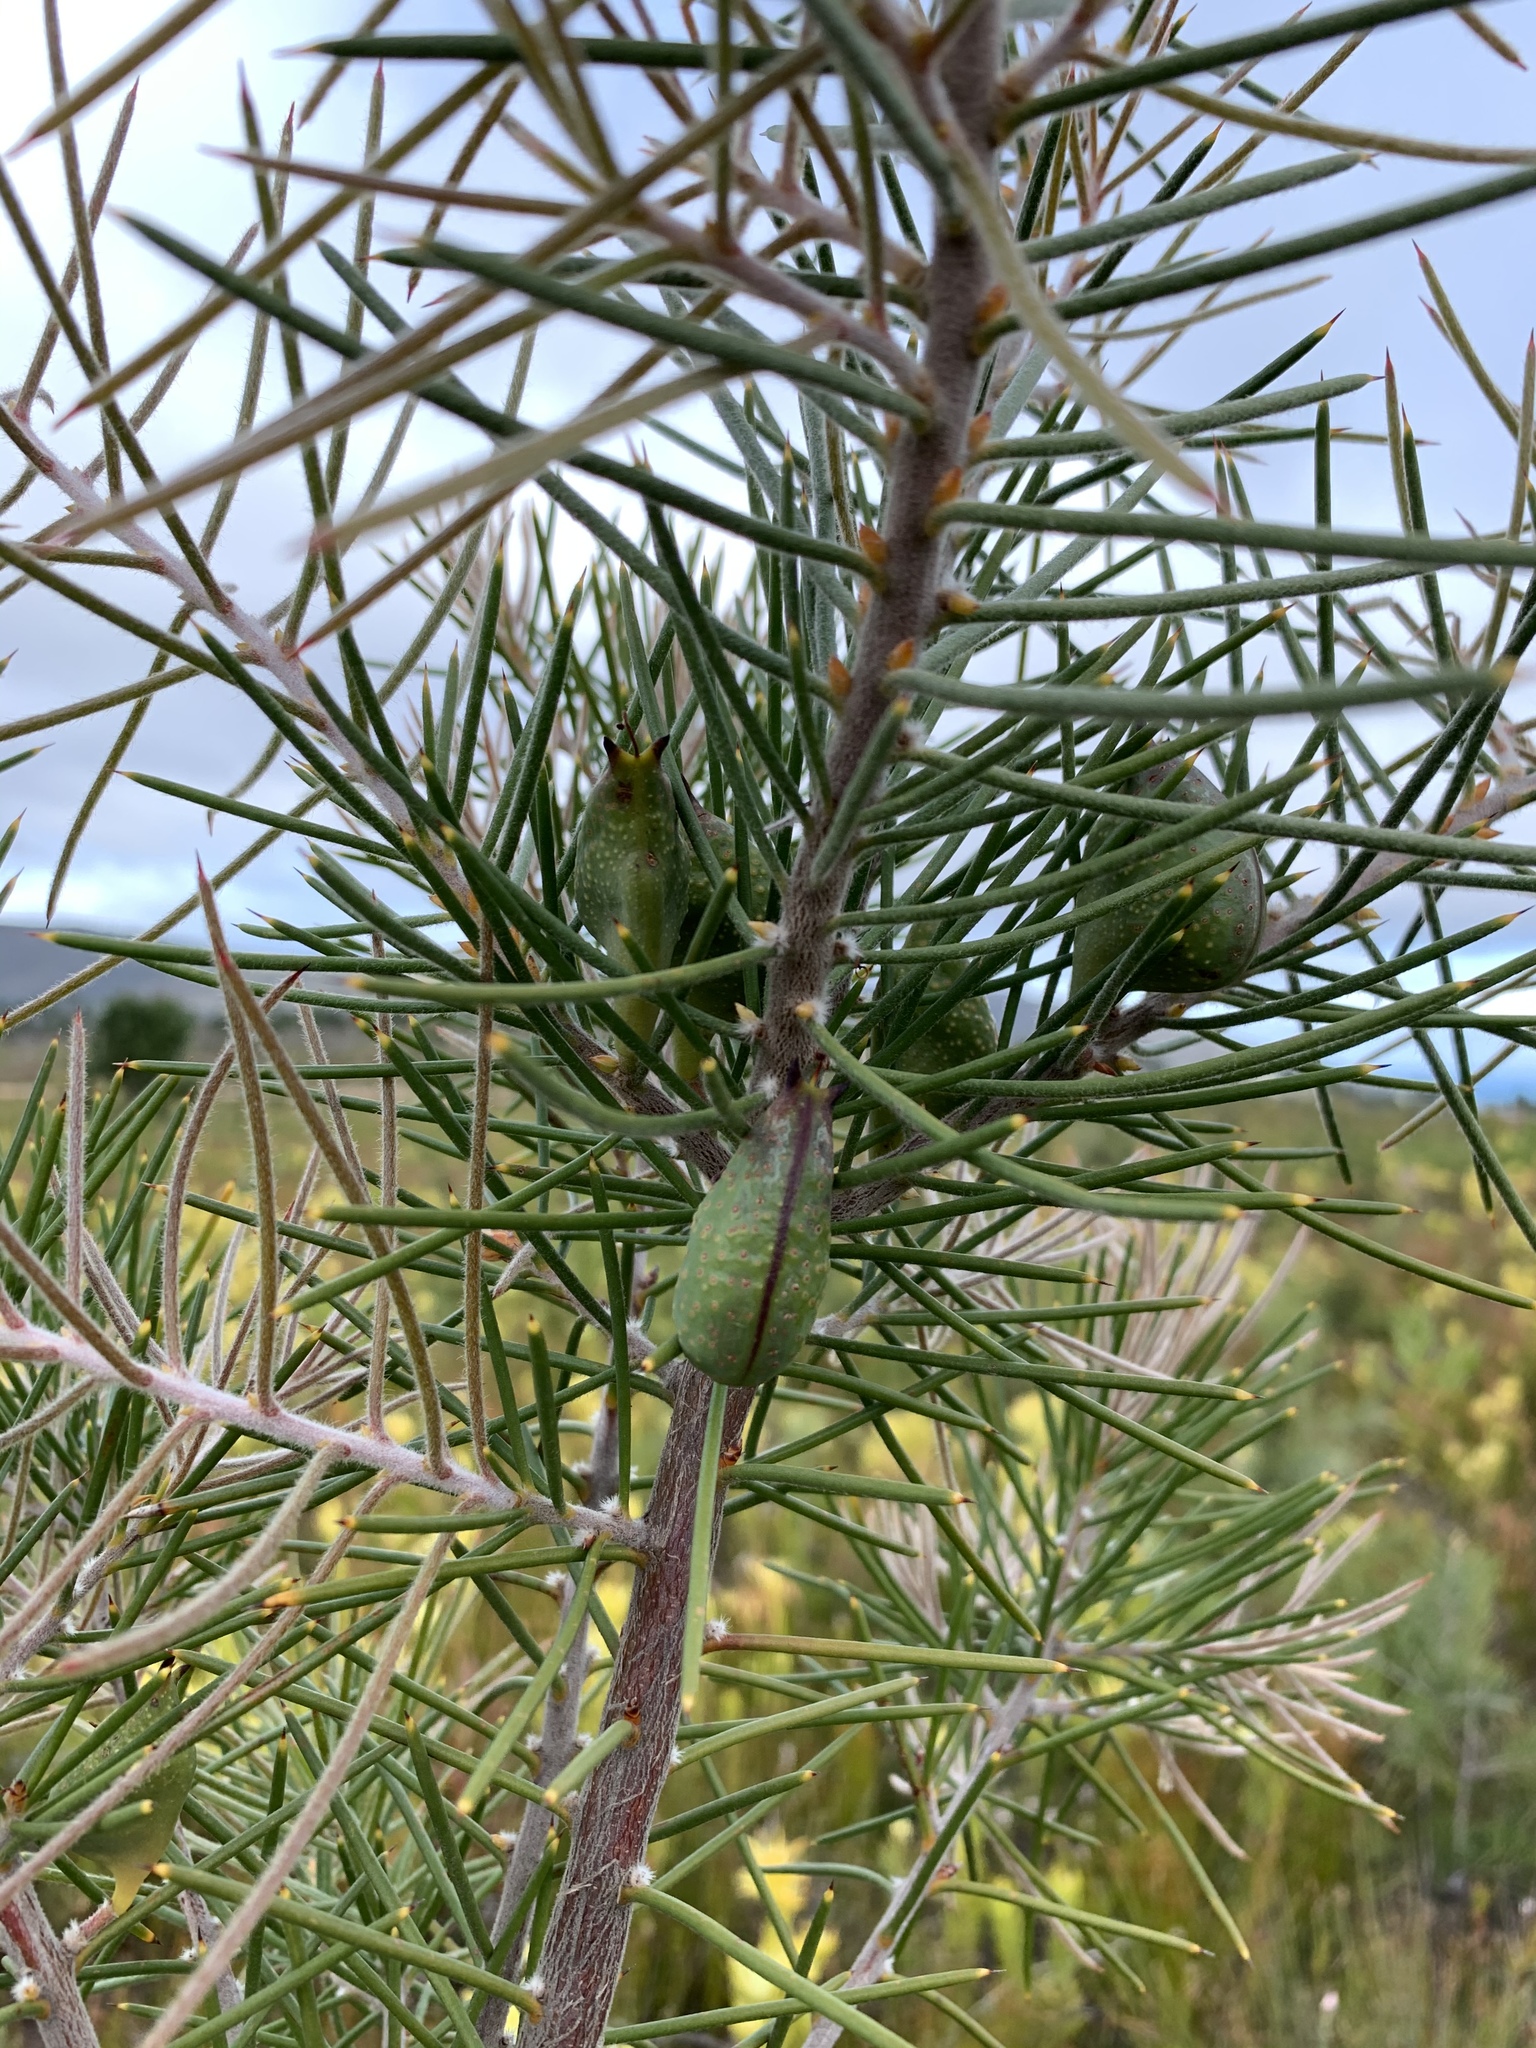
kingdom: Plantae
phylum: Tracheophyta
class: Magnoliopsida
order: Proteales
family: Proteaceae
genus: Hakea
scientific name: Hakea sericea
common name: Needle bush
